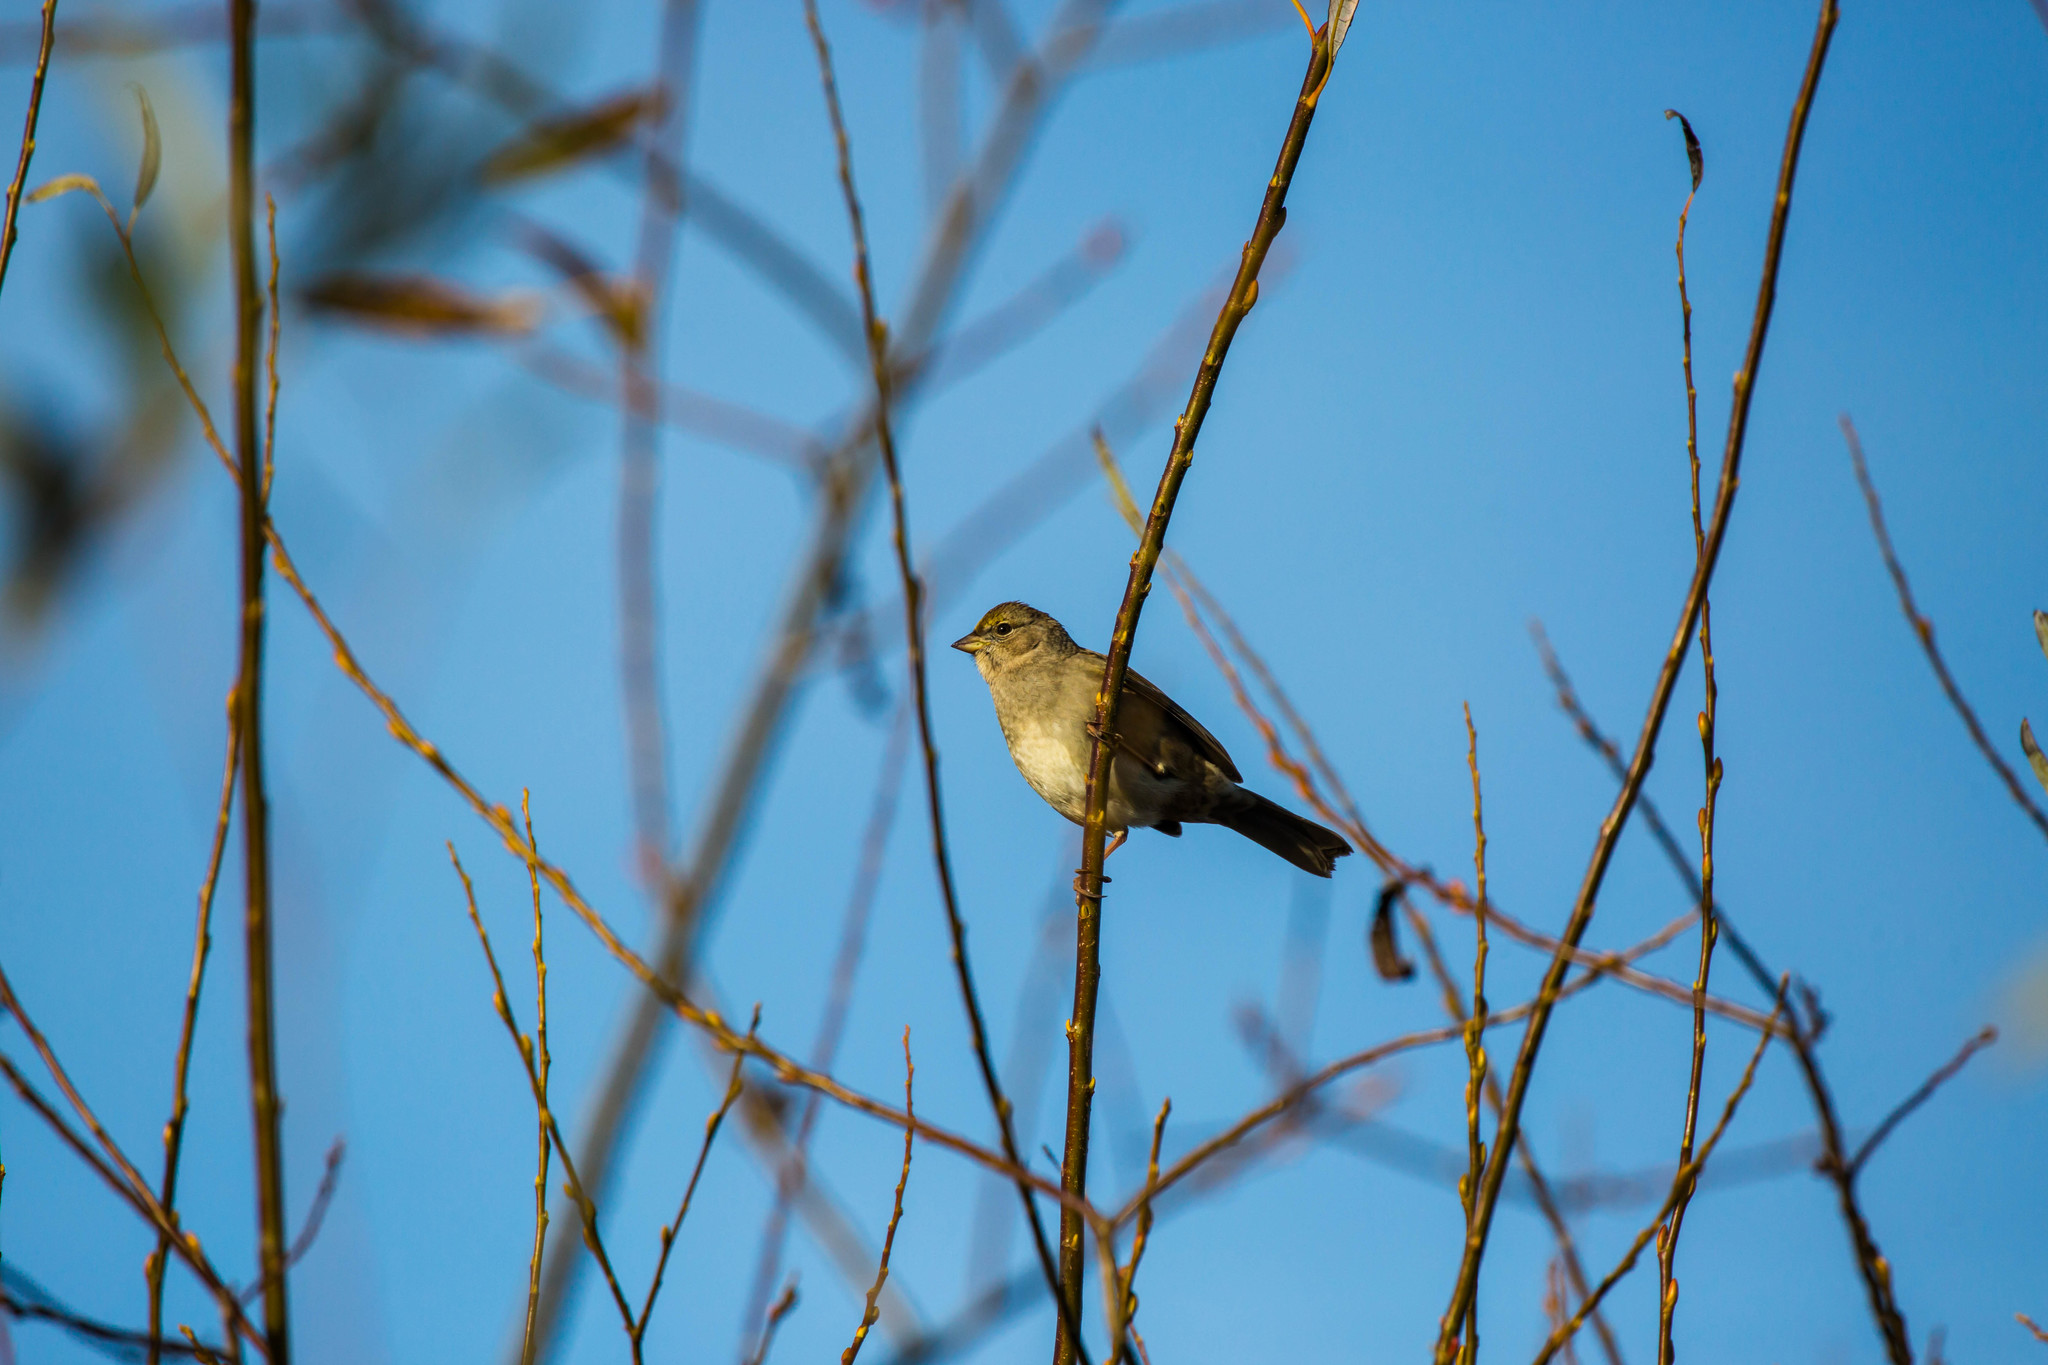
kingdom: Animalia
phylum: Chordata
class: Aves
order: Passeriformes
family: Passerellidae
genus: Zonotrichia
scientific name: Zonotrichia atricapilla
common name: Golden-crowned sparrow
